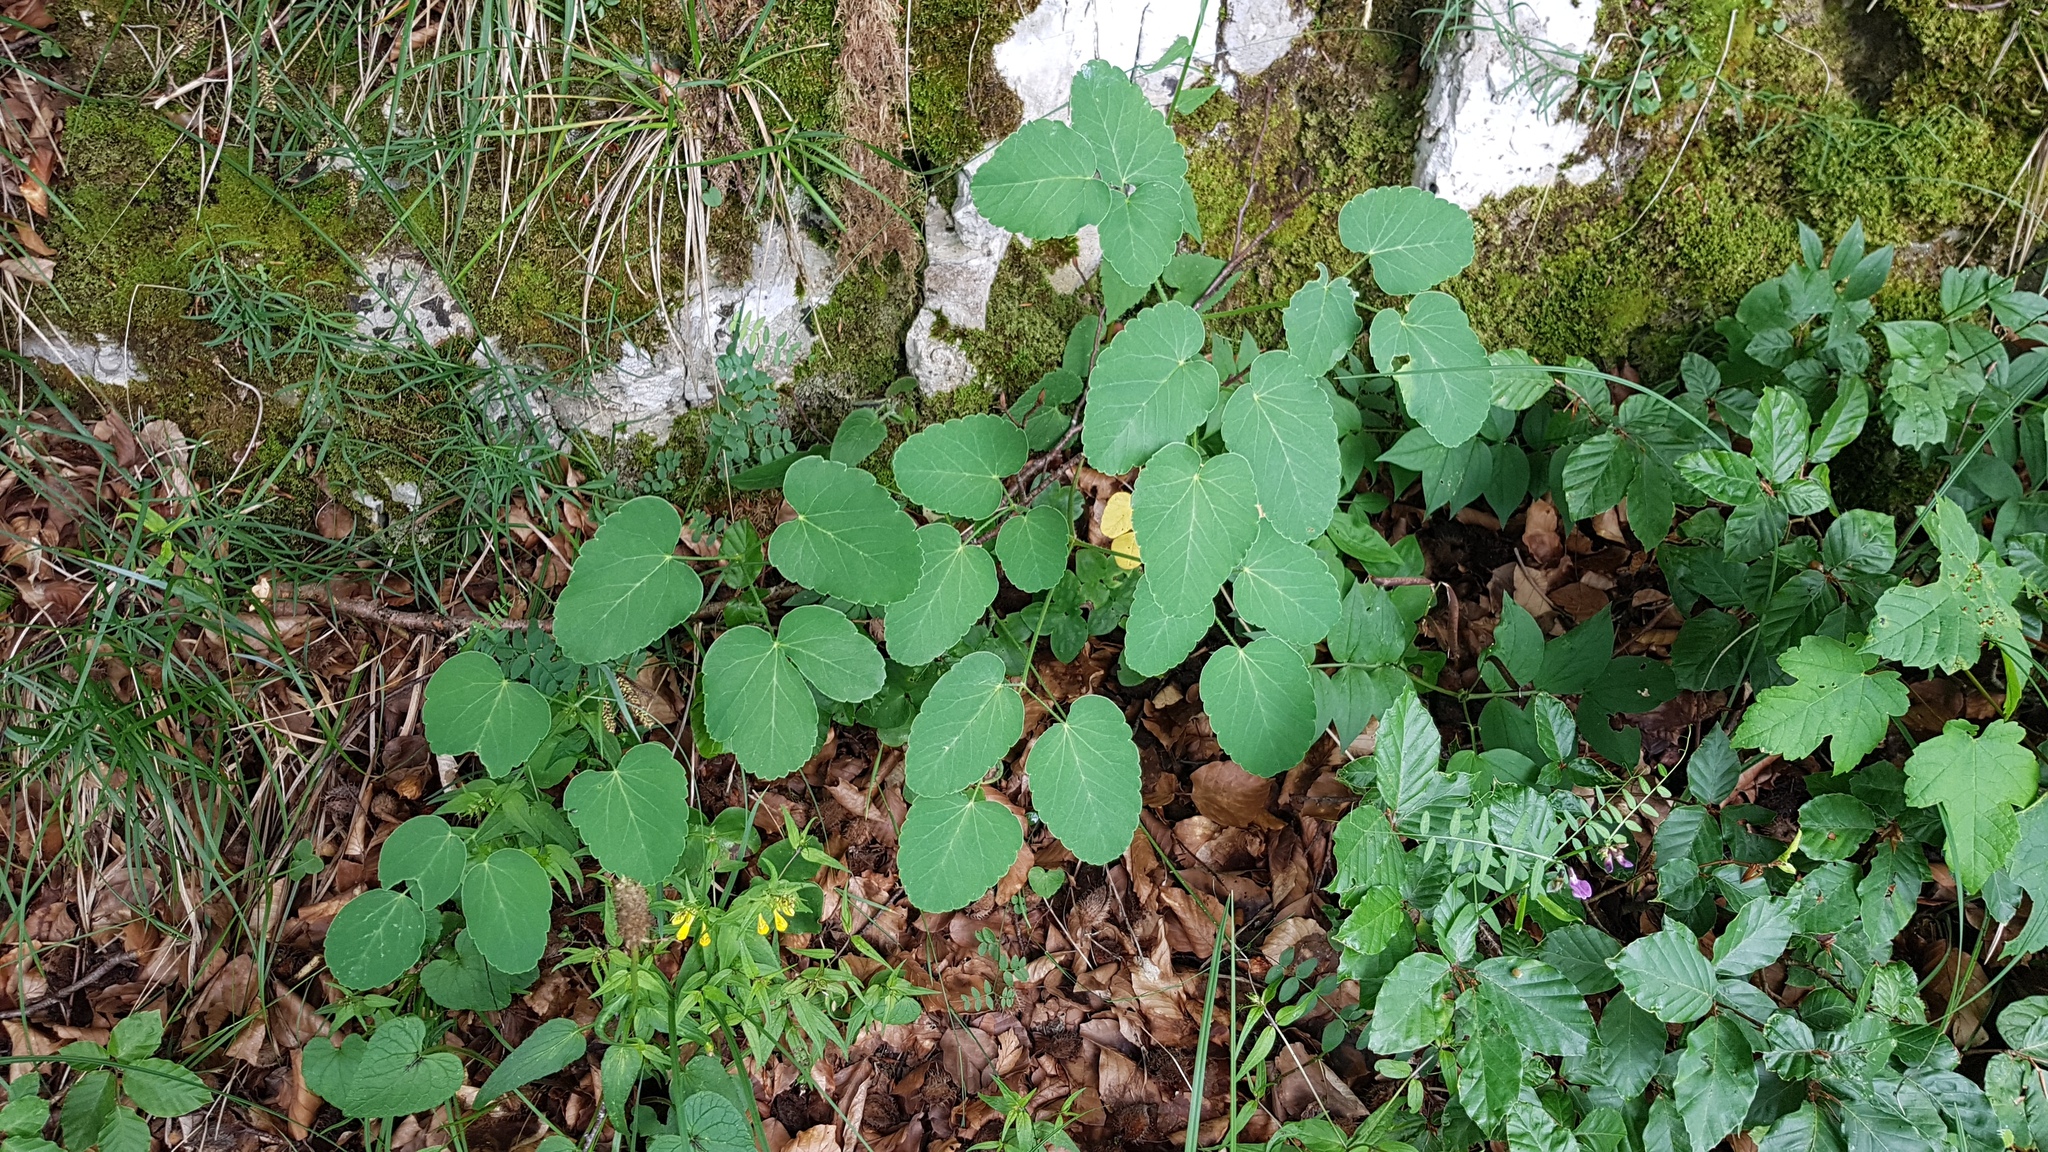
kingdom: Plantae
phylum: Tracheophyta
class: Magnoliopsida
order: Apiales
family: Apiaceae
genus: Laserpitium
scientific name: Laserpitium latifolium
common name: Broadleaf sermountain
